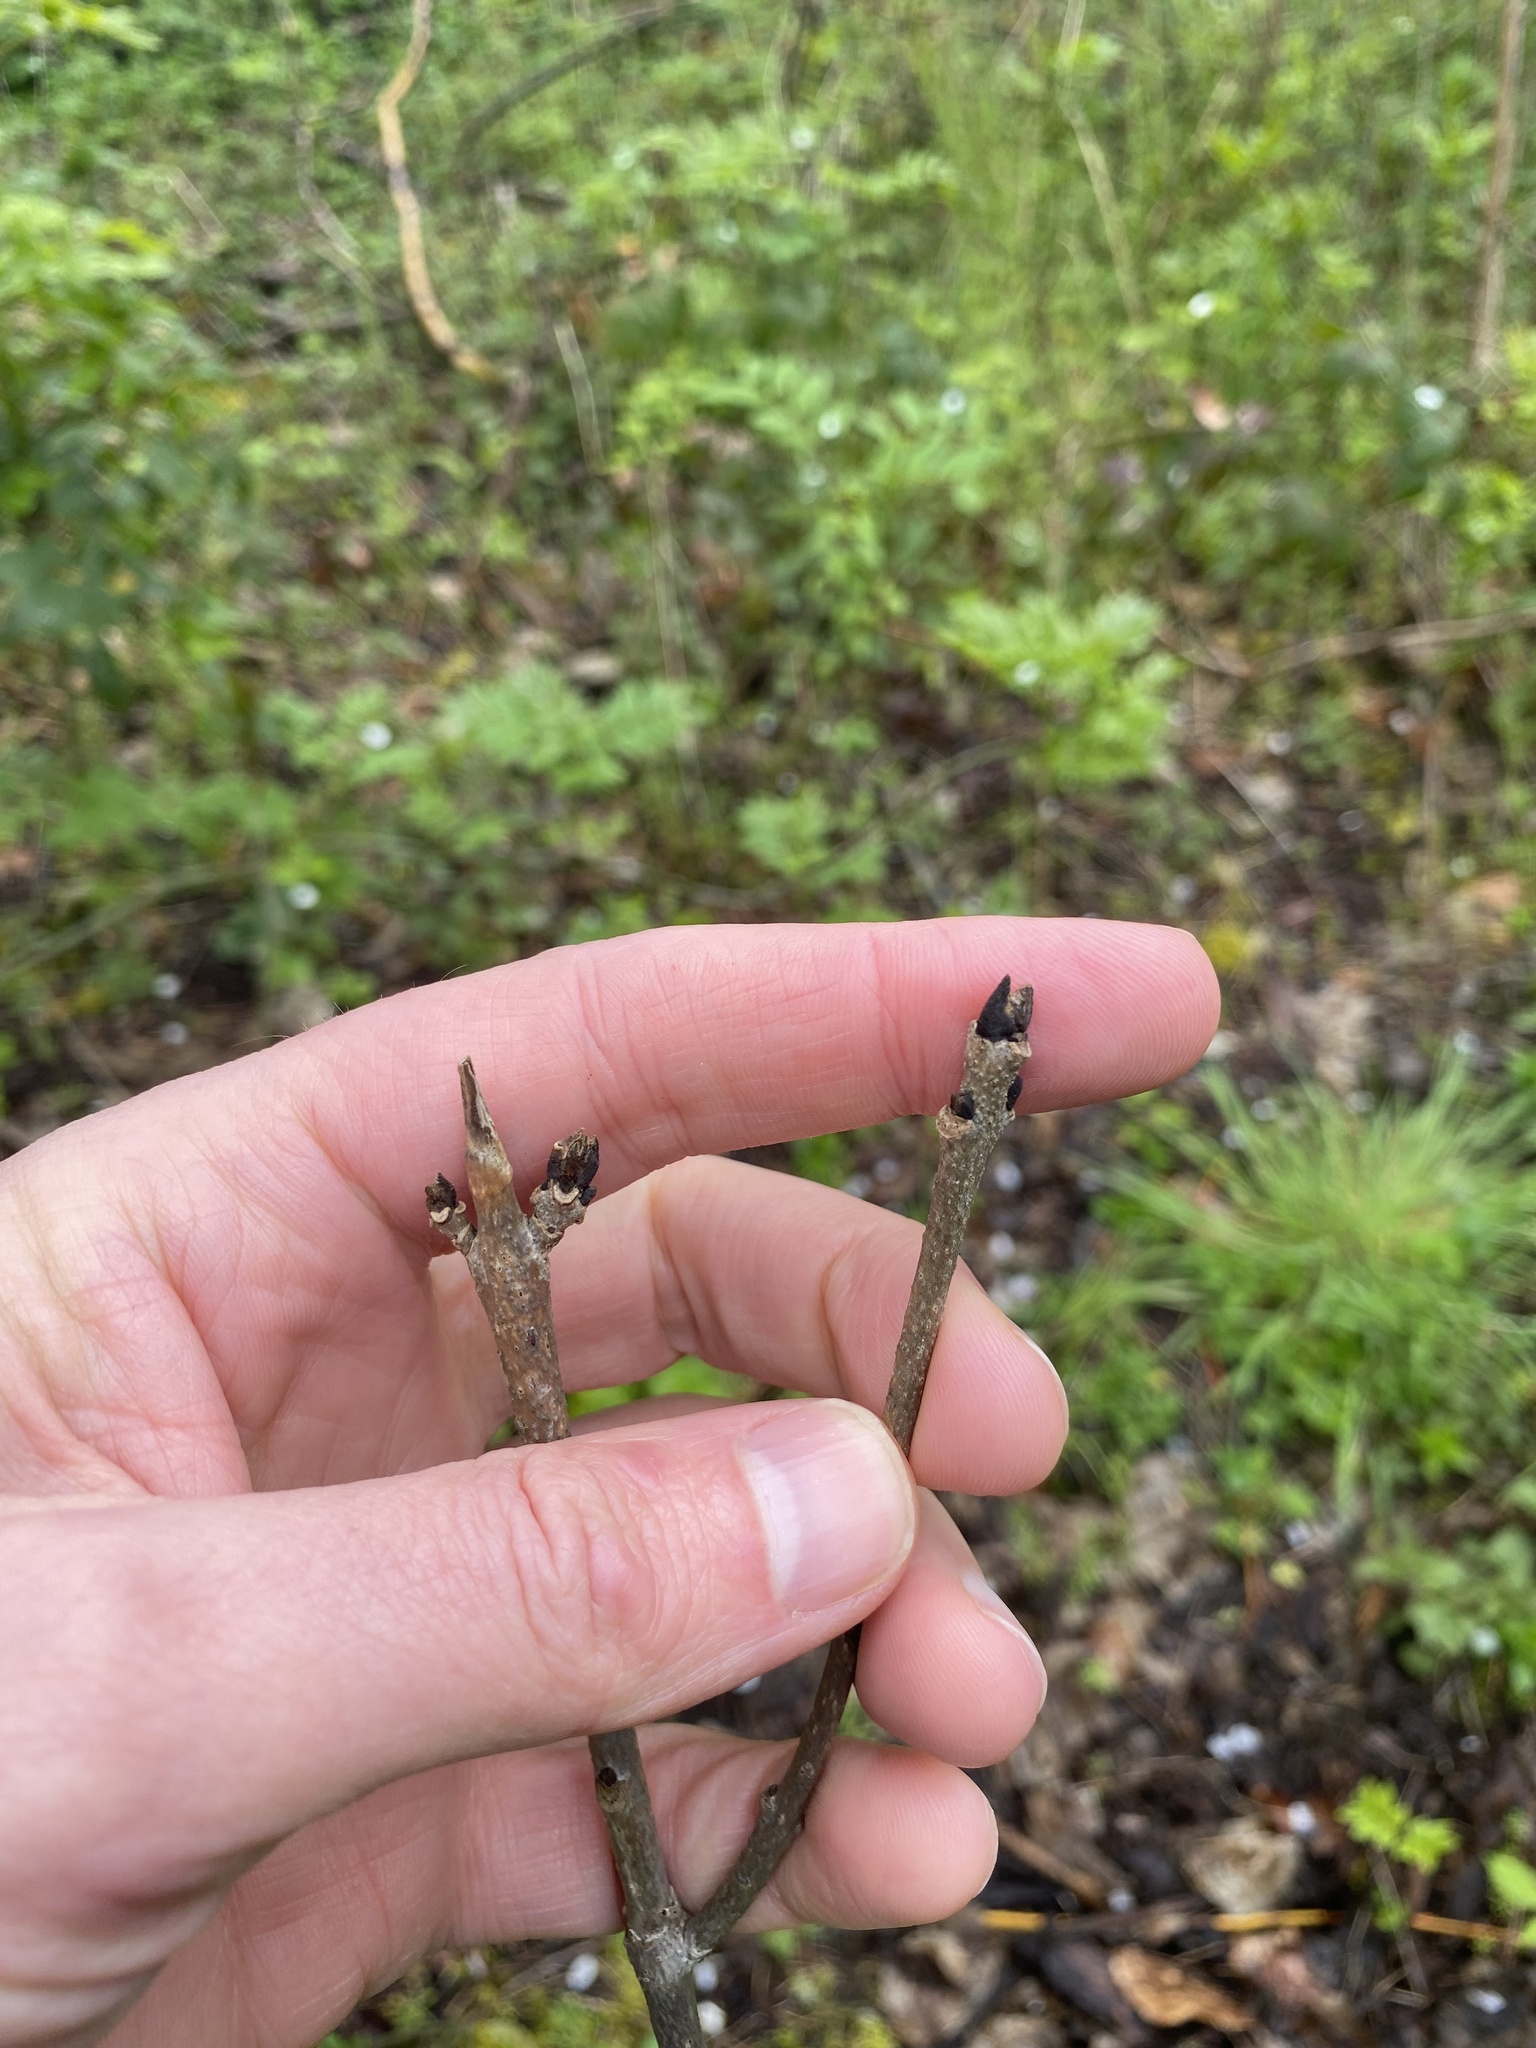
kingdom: Plantae
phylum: Tracheophyta
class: Magnoliopsida
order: Lamiales
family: Oleaceae
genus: Fraxinus
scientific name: Fraxinus excelsior
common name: European ash
